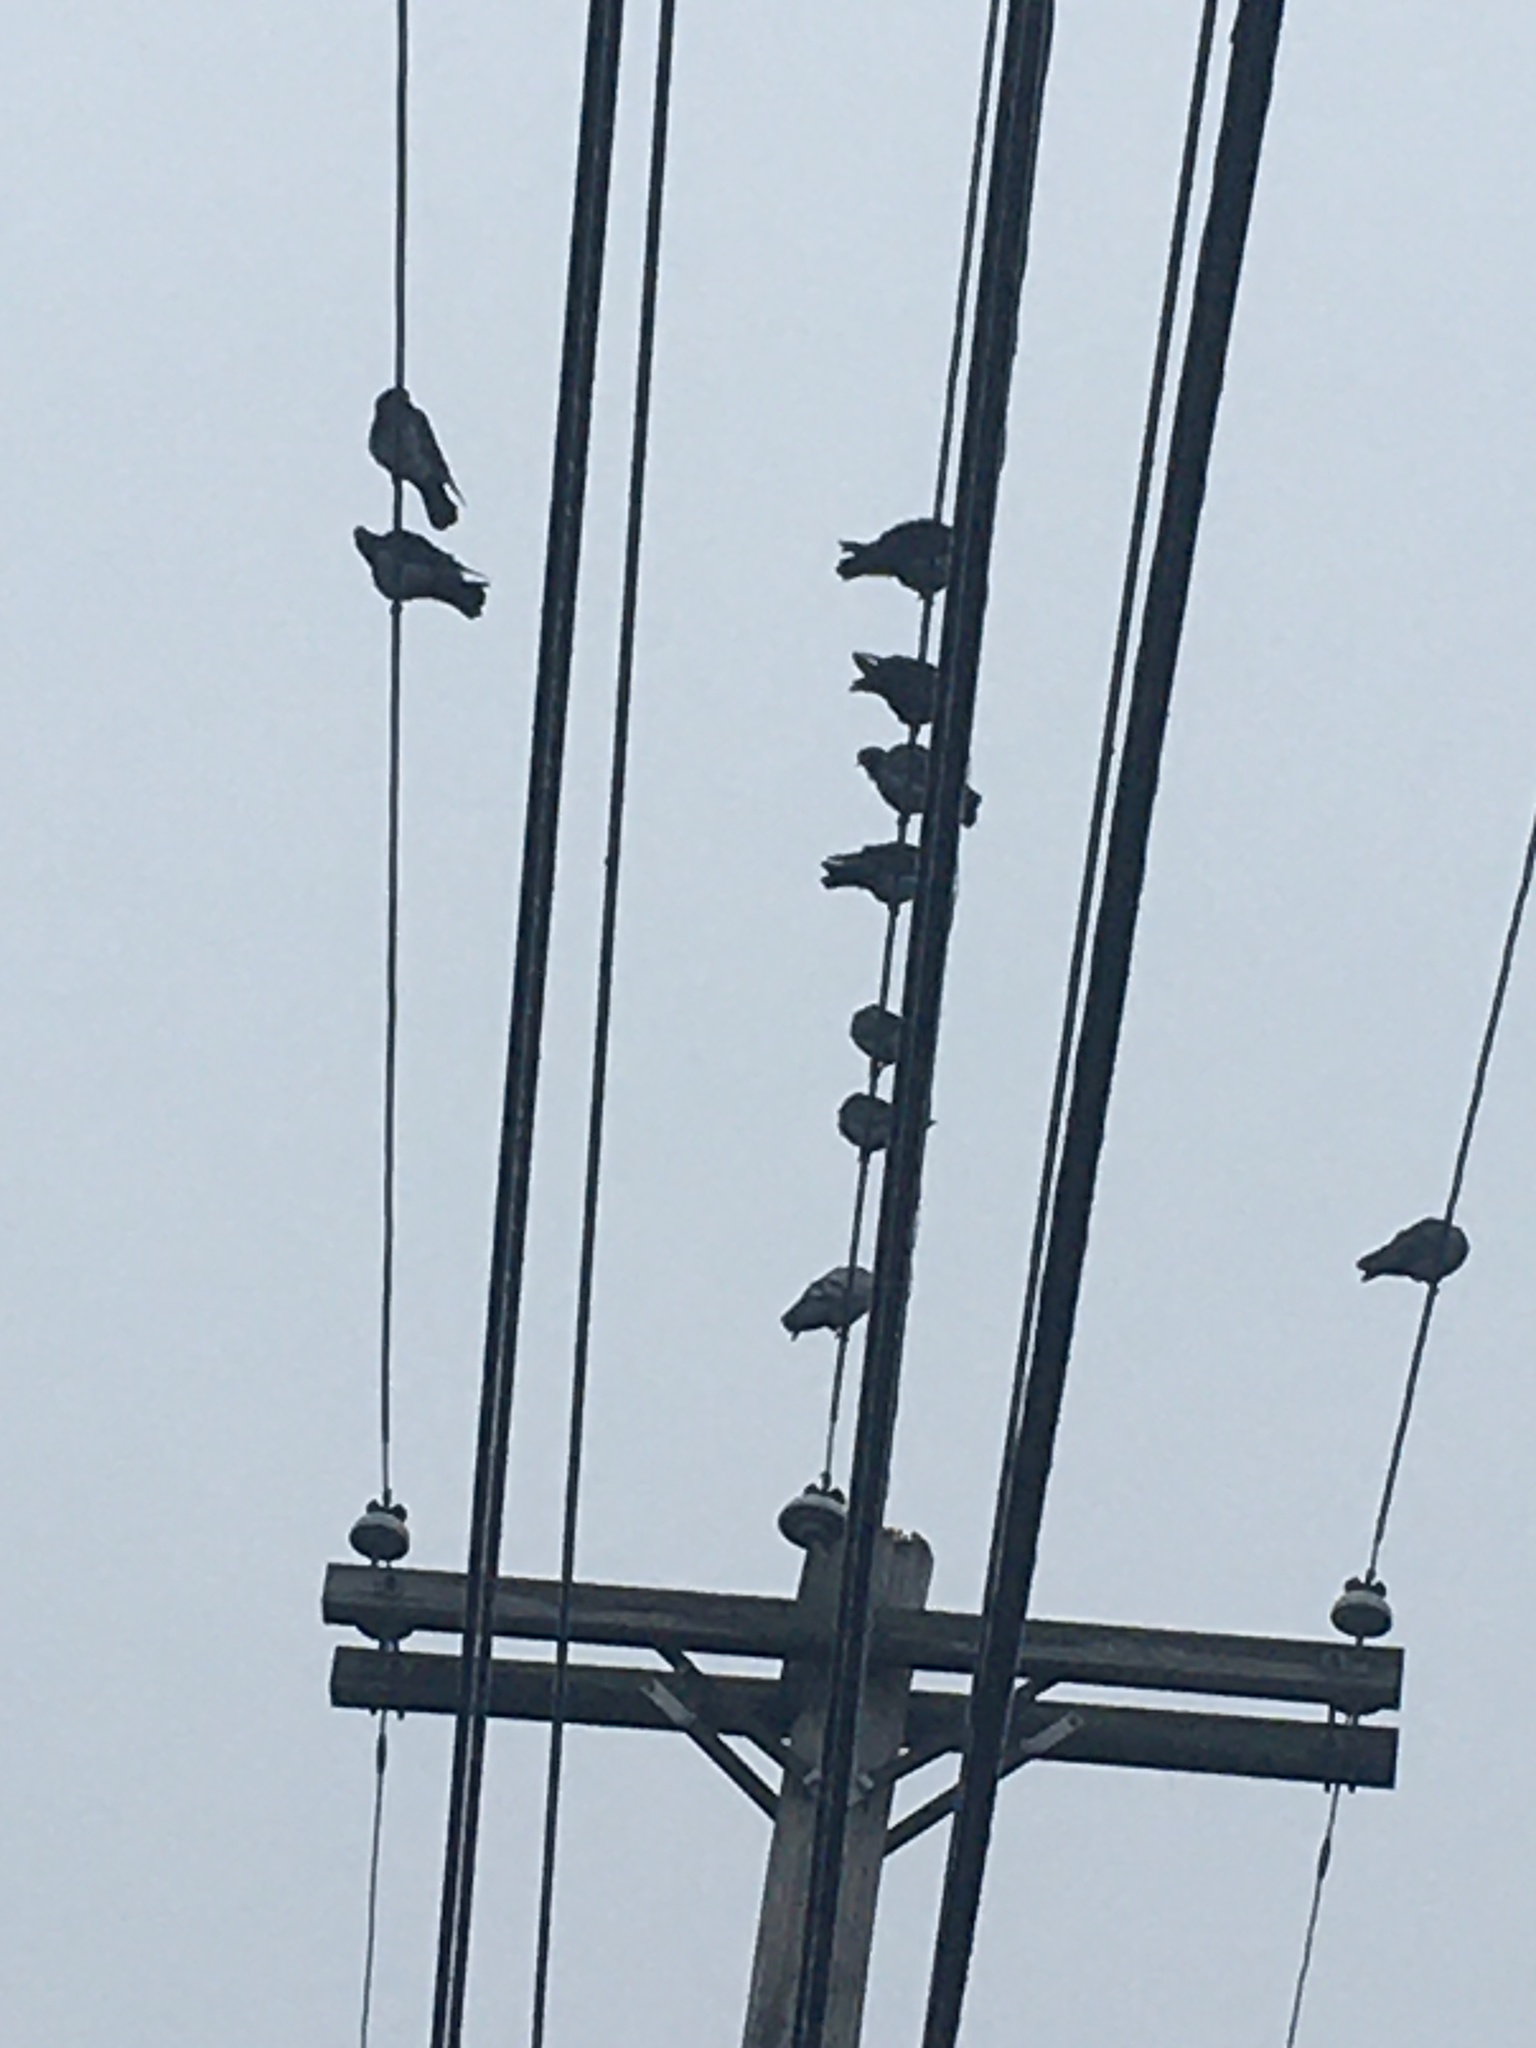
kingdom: Animalia
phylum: Chordata
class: Aves
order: Columbiformes
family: Columbidae
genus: Columba
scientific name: Columba livia
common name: Rock pigeon
